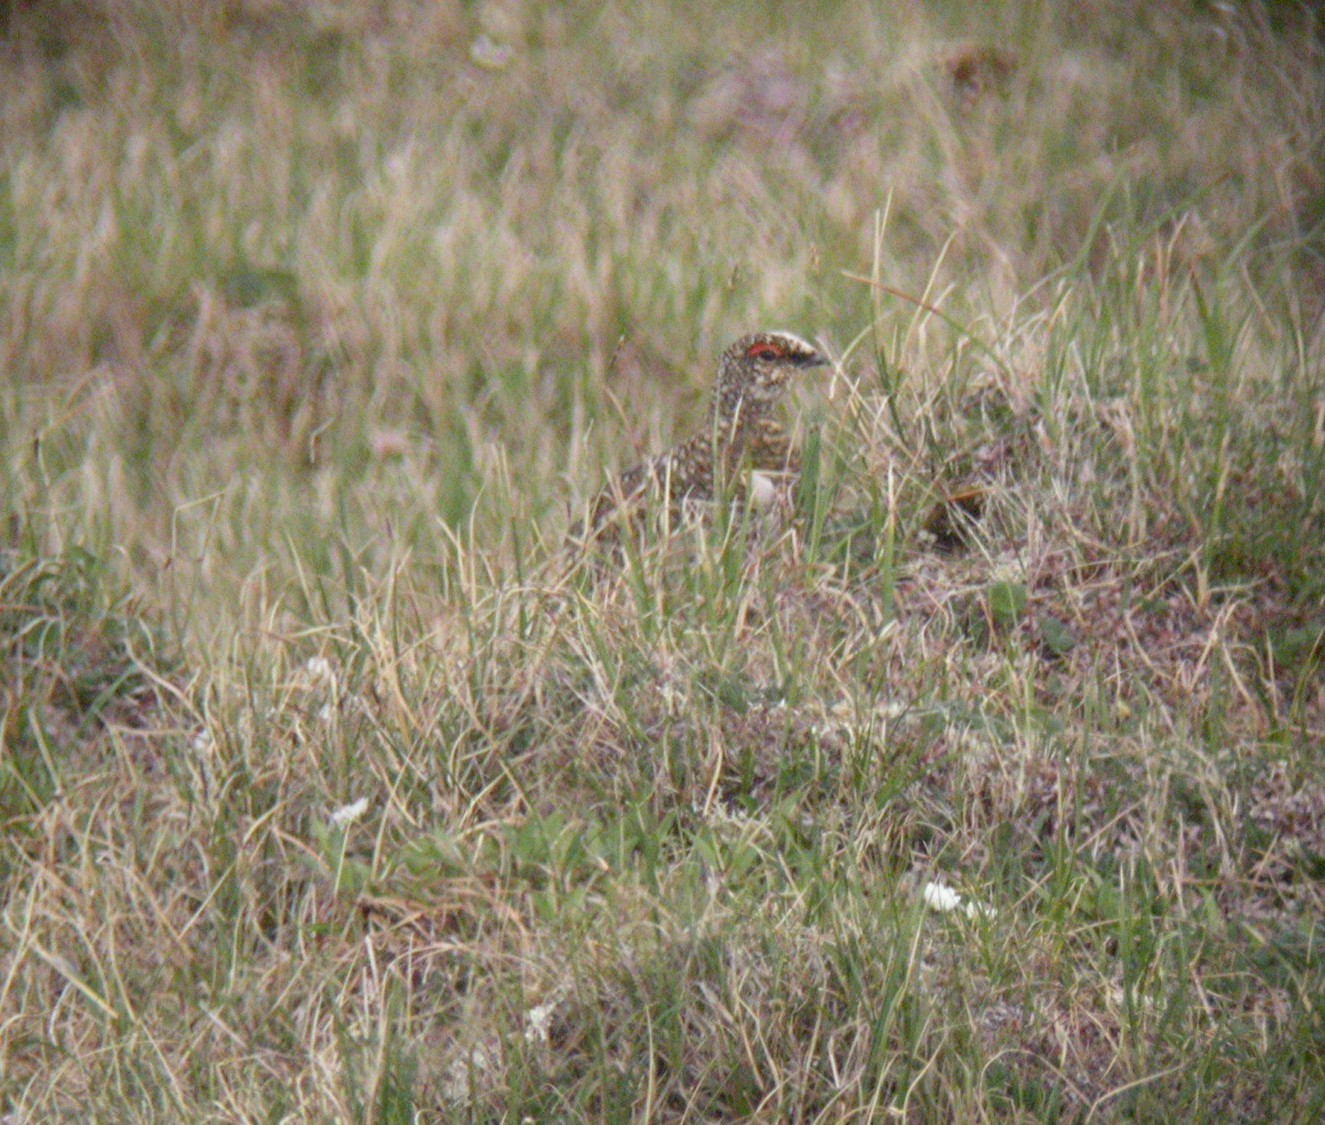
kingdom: Animalia
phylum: Chordata
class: Aves
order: Galliformes
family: Phasianidae
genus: Lagopus
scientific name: Lagopus muta
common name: Rock ptarmigan
